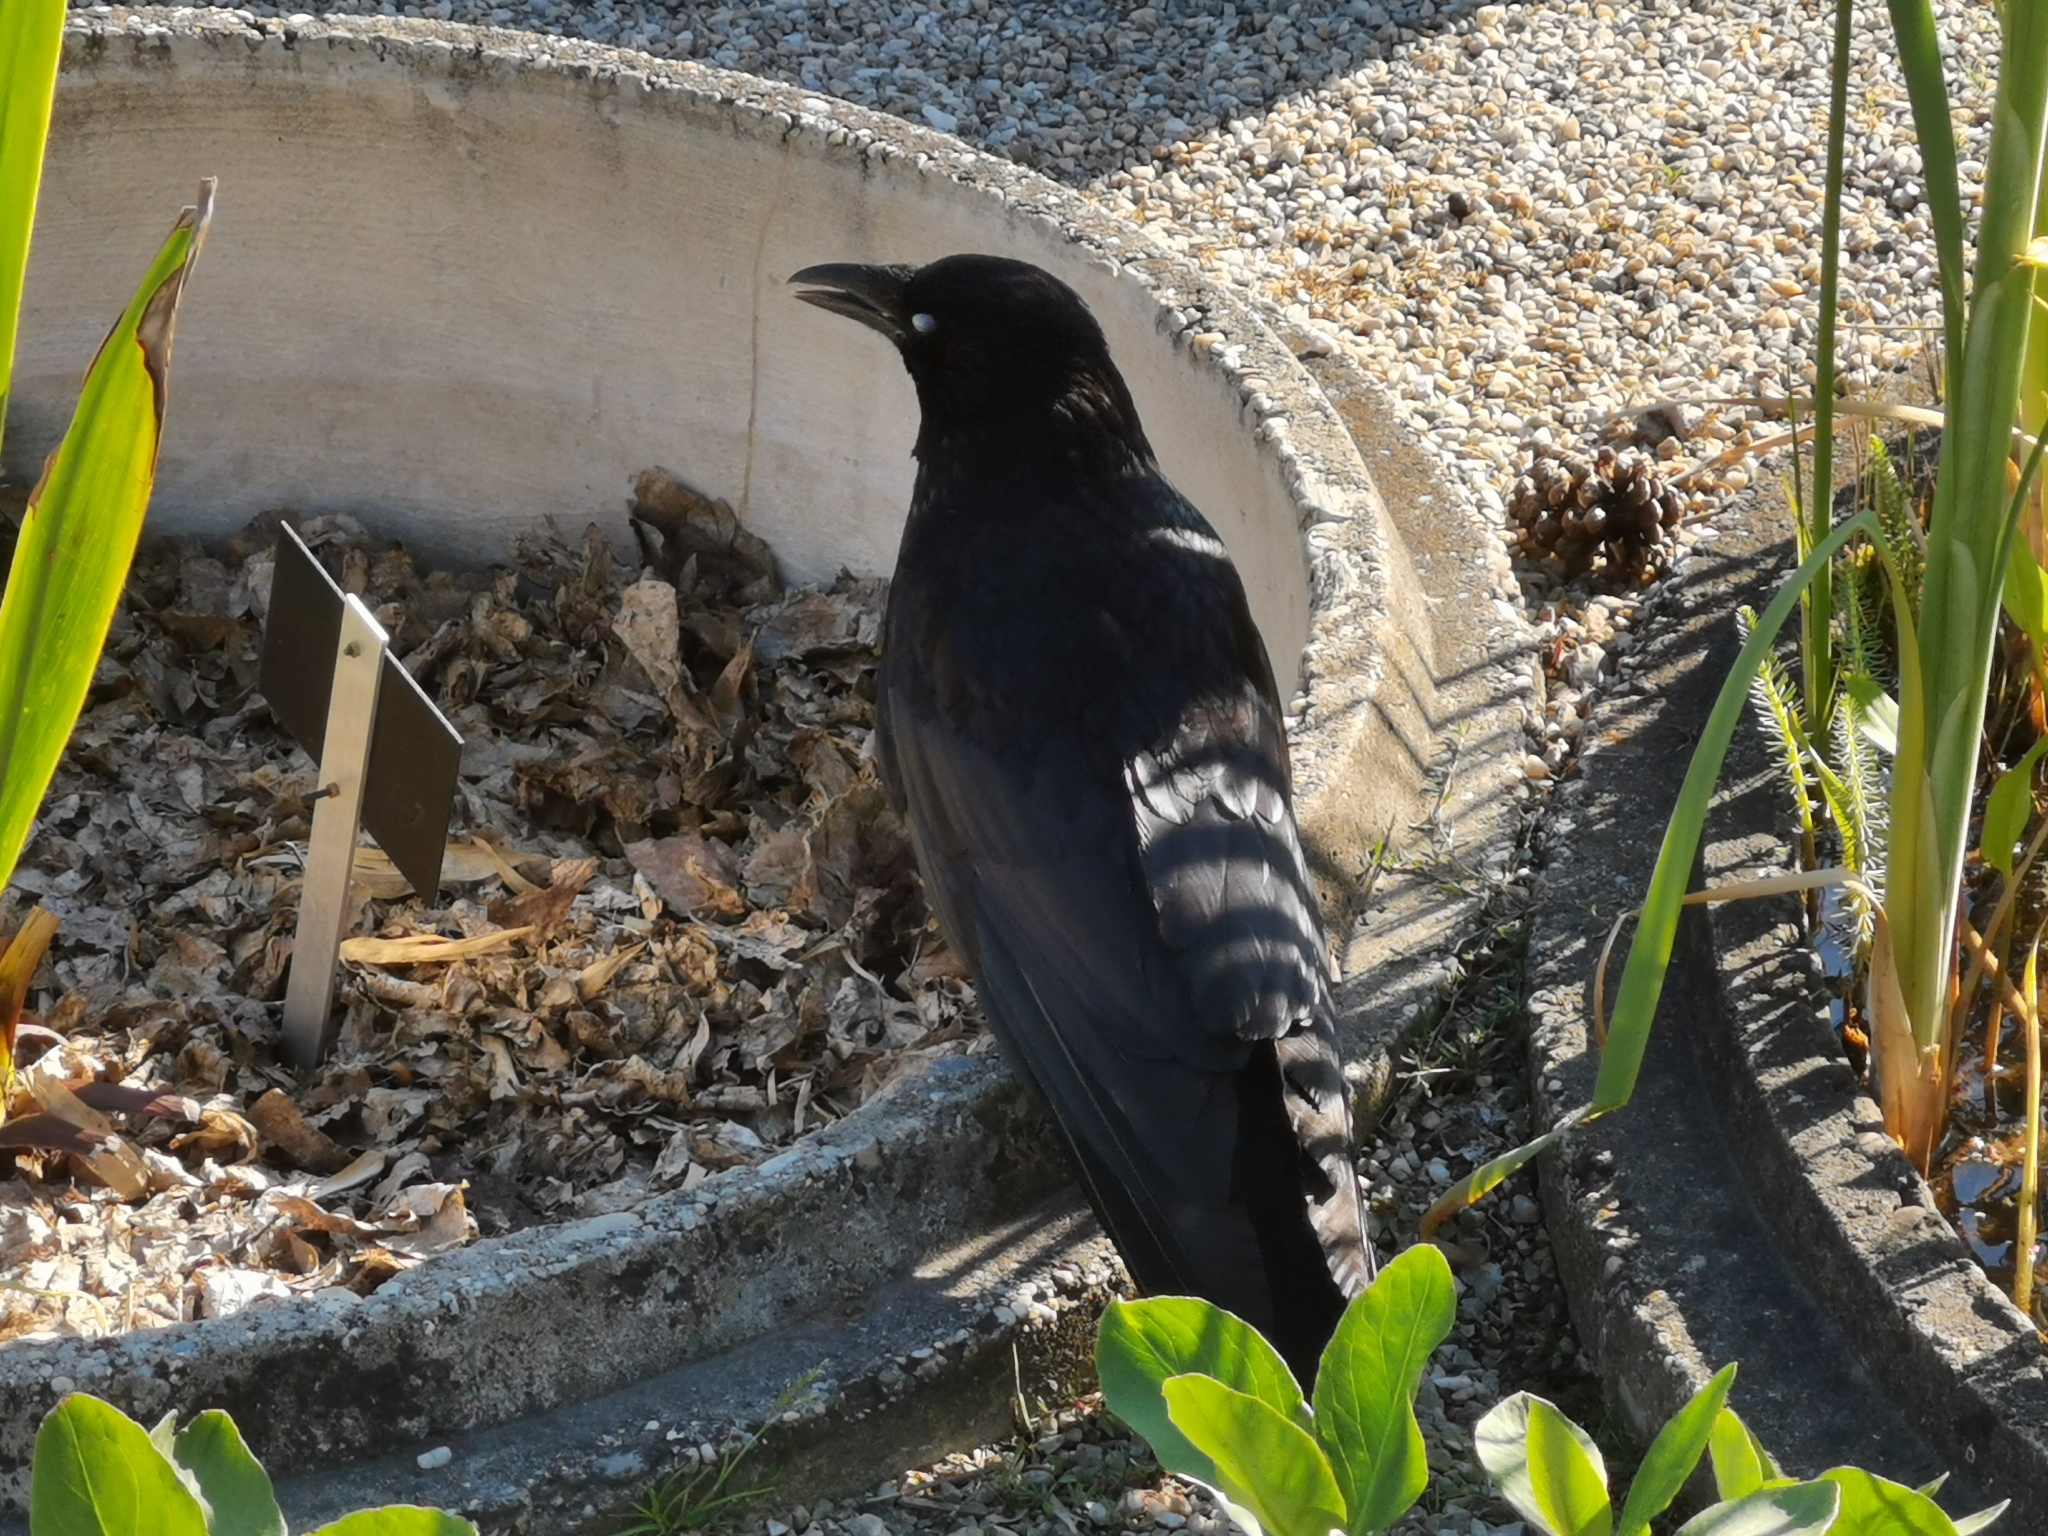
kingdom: Animalia
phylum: Chordata
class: Aves
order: Passeriformes
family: Corvidae
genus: Corvus
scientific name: Corvus corone
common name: Carrion crow
